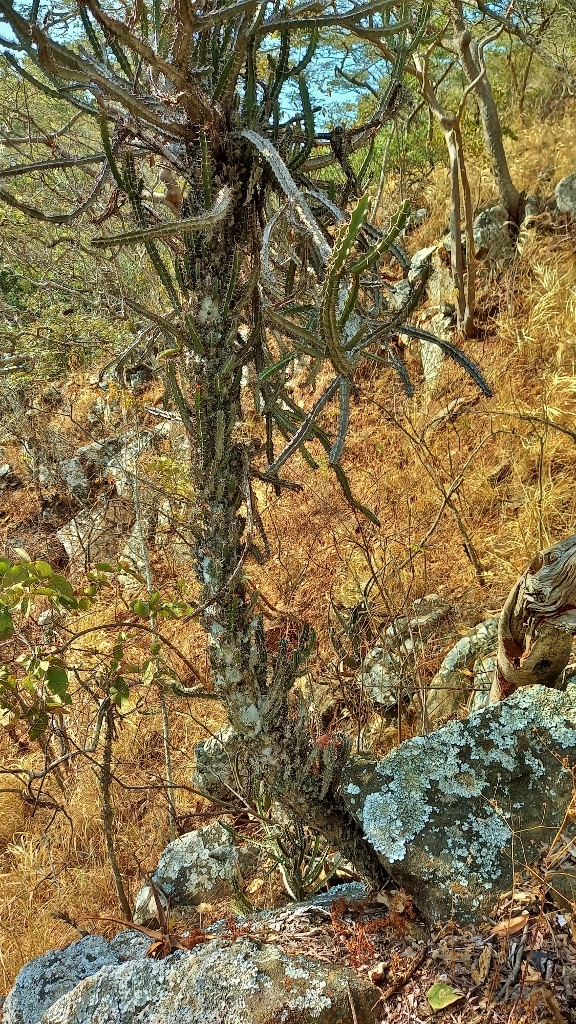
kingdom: Plantae
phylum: Tracheophyta
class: Magnoliopsida
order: Malpighiales
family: Euphorbiaceae
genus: Euphorbia
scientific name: Euphorbia griseola
